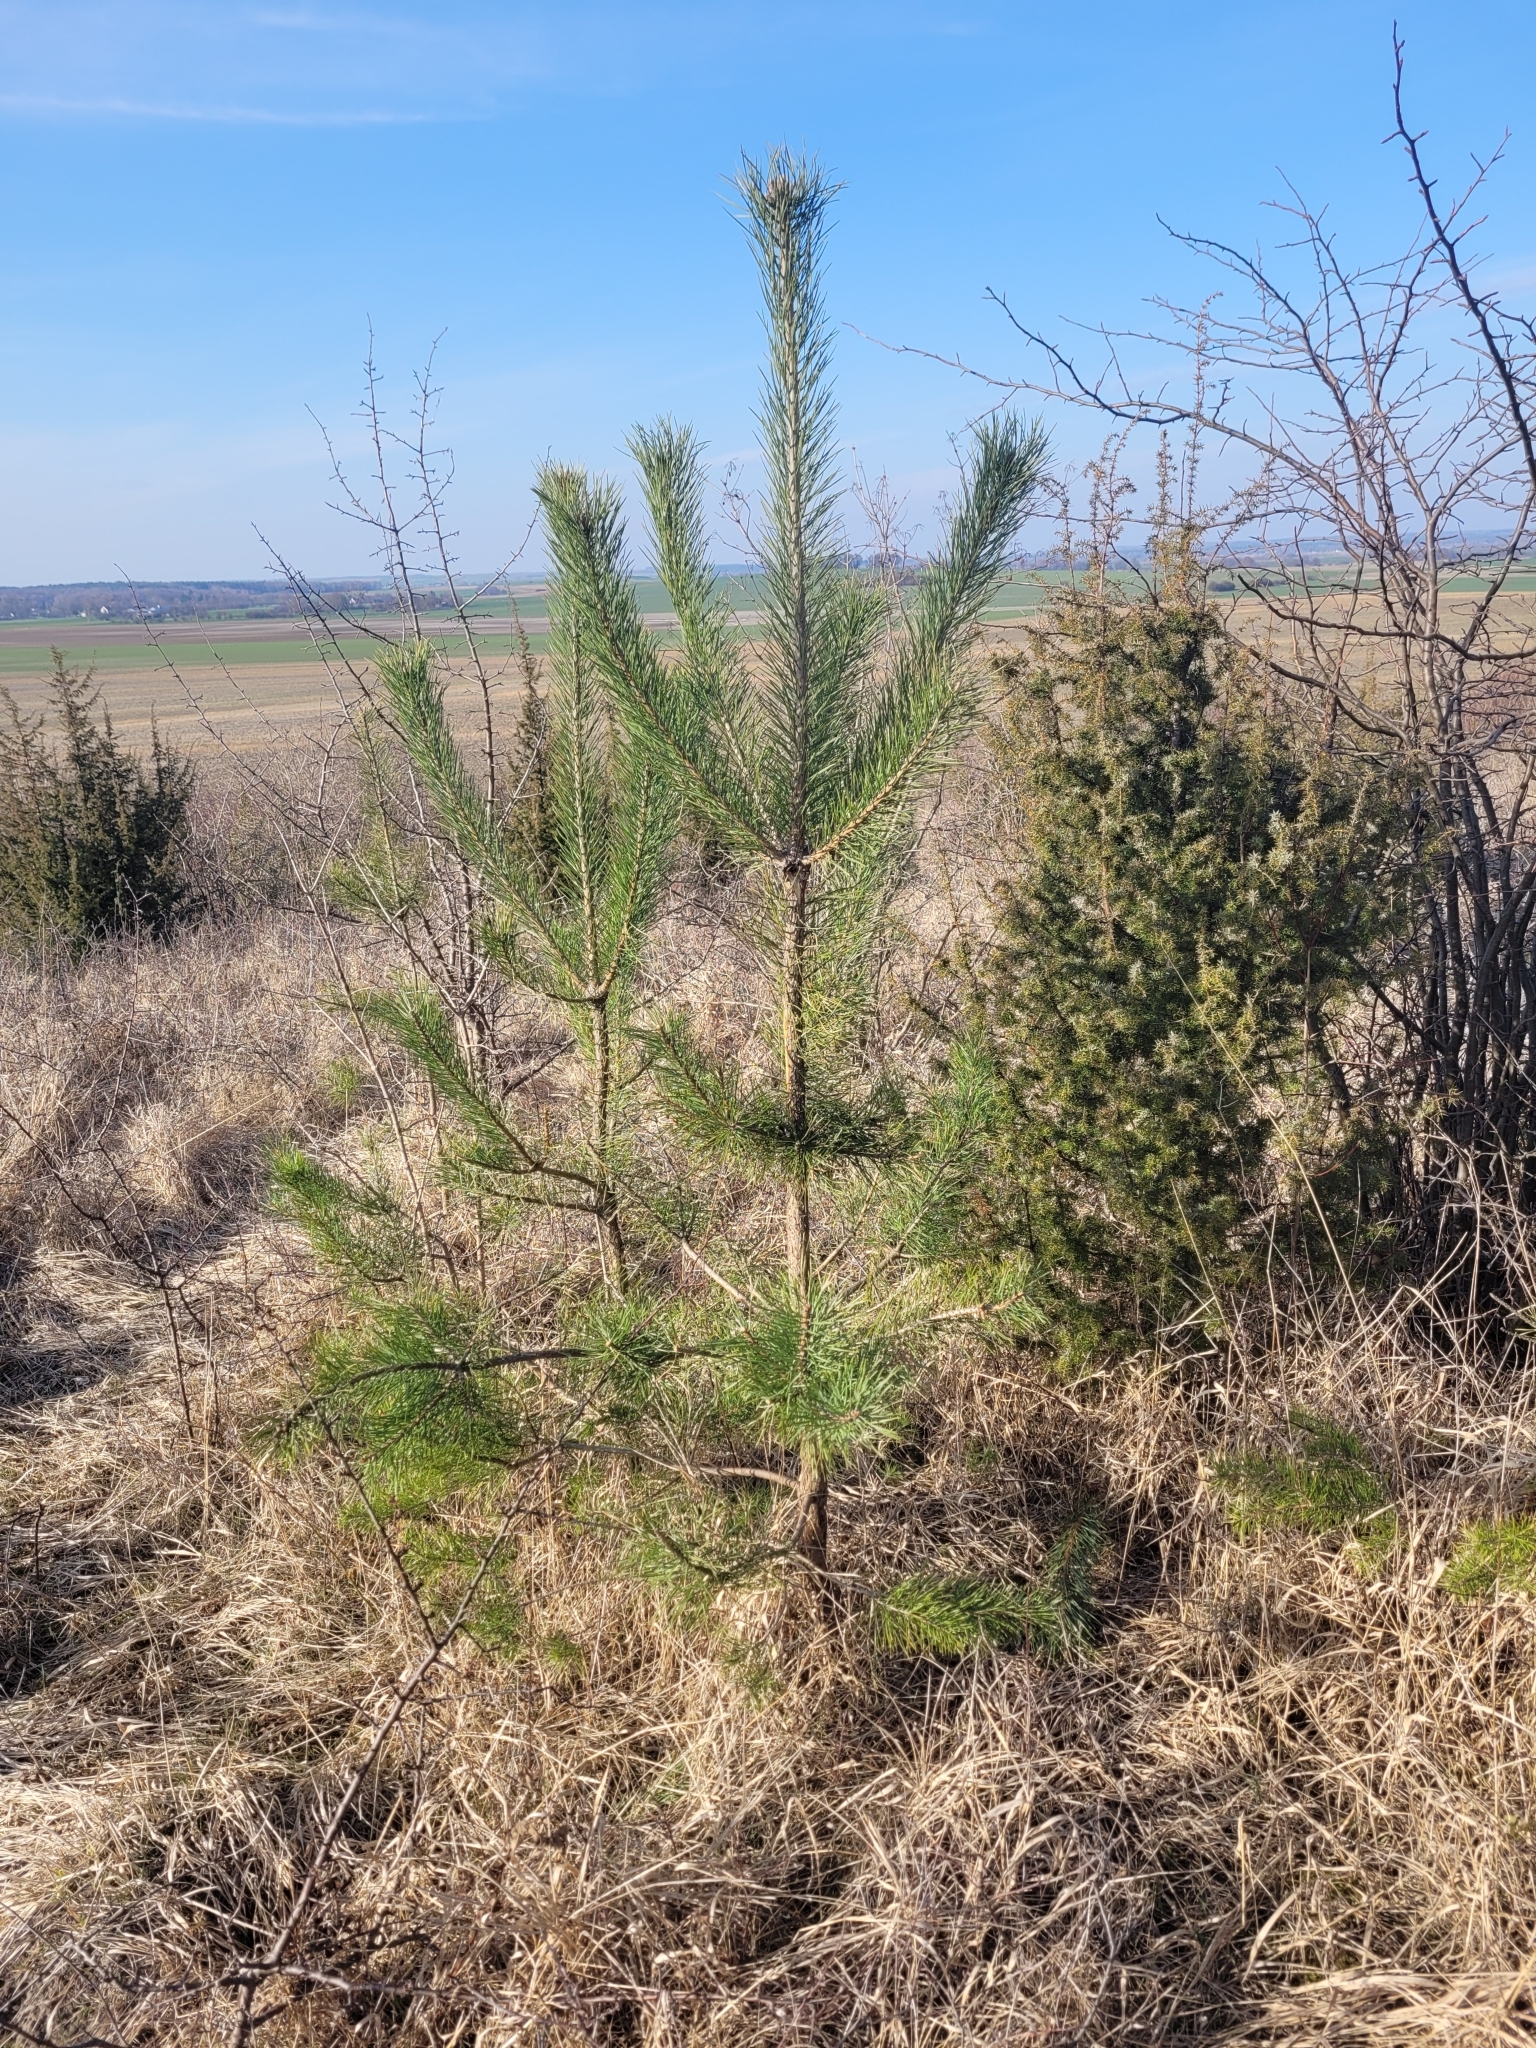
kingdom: Plantae
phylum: Tracheophyta
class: Pinopsida
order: Pinales
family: Pinaceae
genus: Pinus
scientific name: Pinus sylvestris
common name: Scots pine
